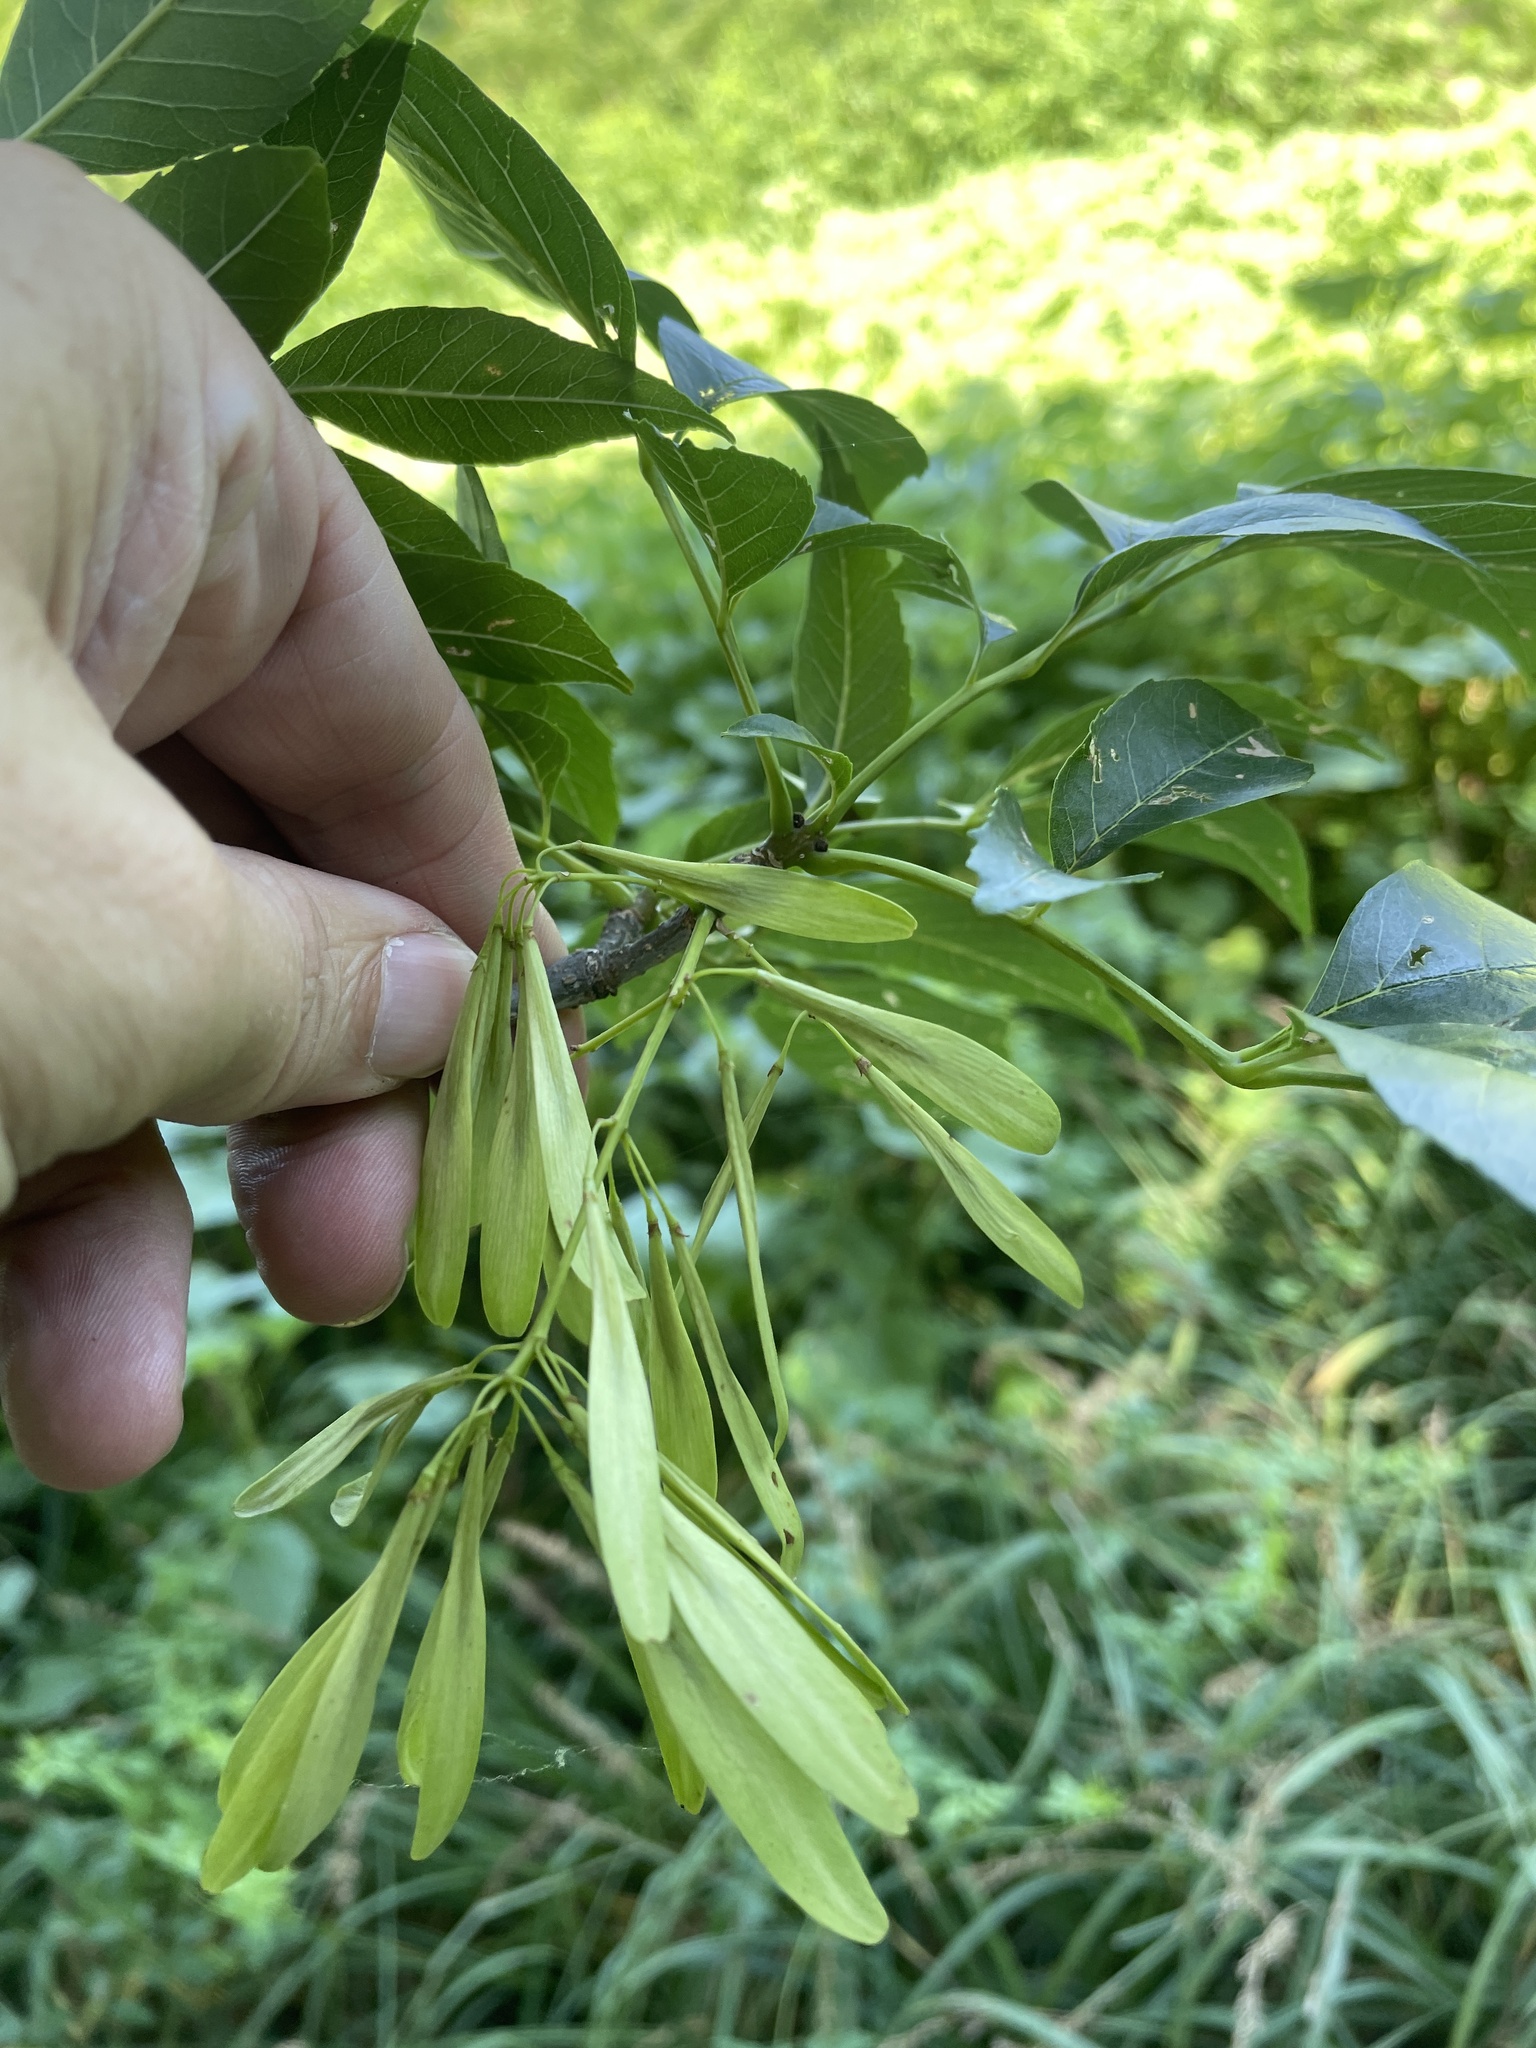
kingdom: Plantae
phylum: Tracheophyta
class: Magnoliopsida
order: Lamiales
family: Oleaceae
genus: Fraxinus
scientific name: Fraxinus berlandieriana
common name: Berlandier ash
